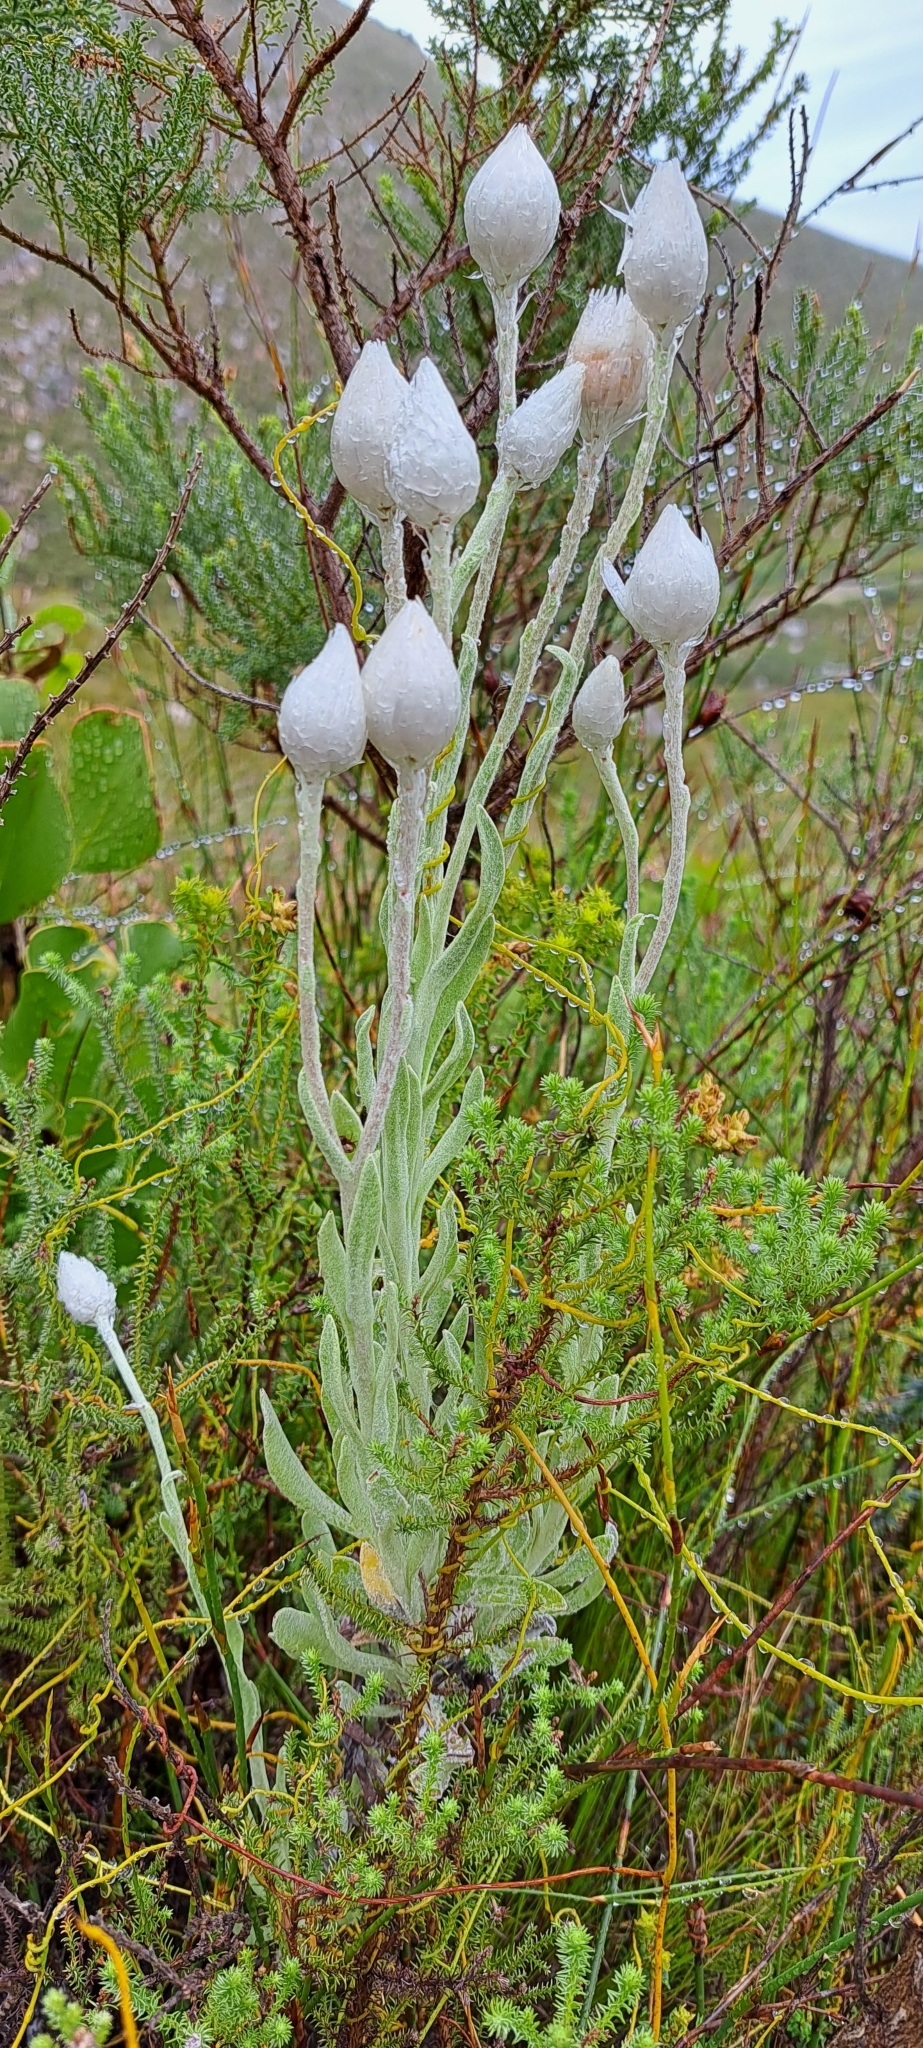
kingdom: Plantae
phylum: Tracheophyta
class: Magnoliopsida
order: Asterales
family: Asteraceae
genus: Syncarpha
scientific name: Syncarpha vestita
